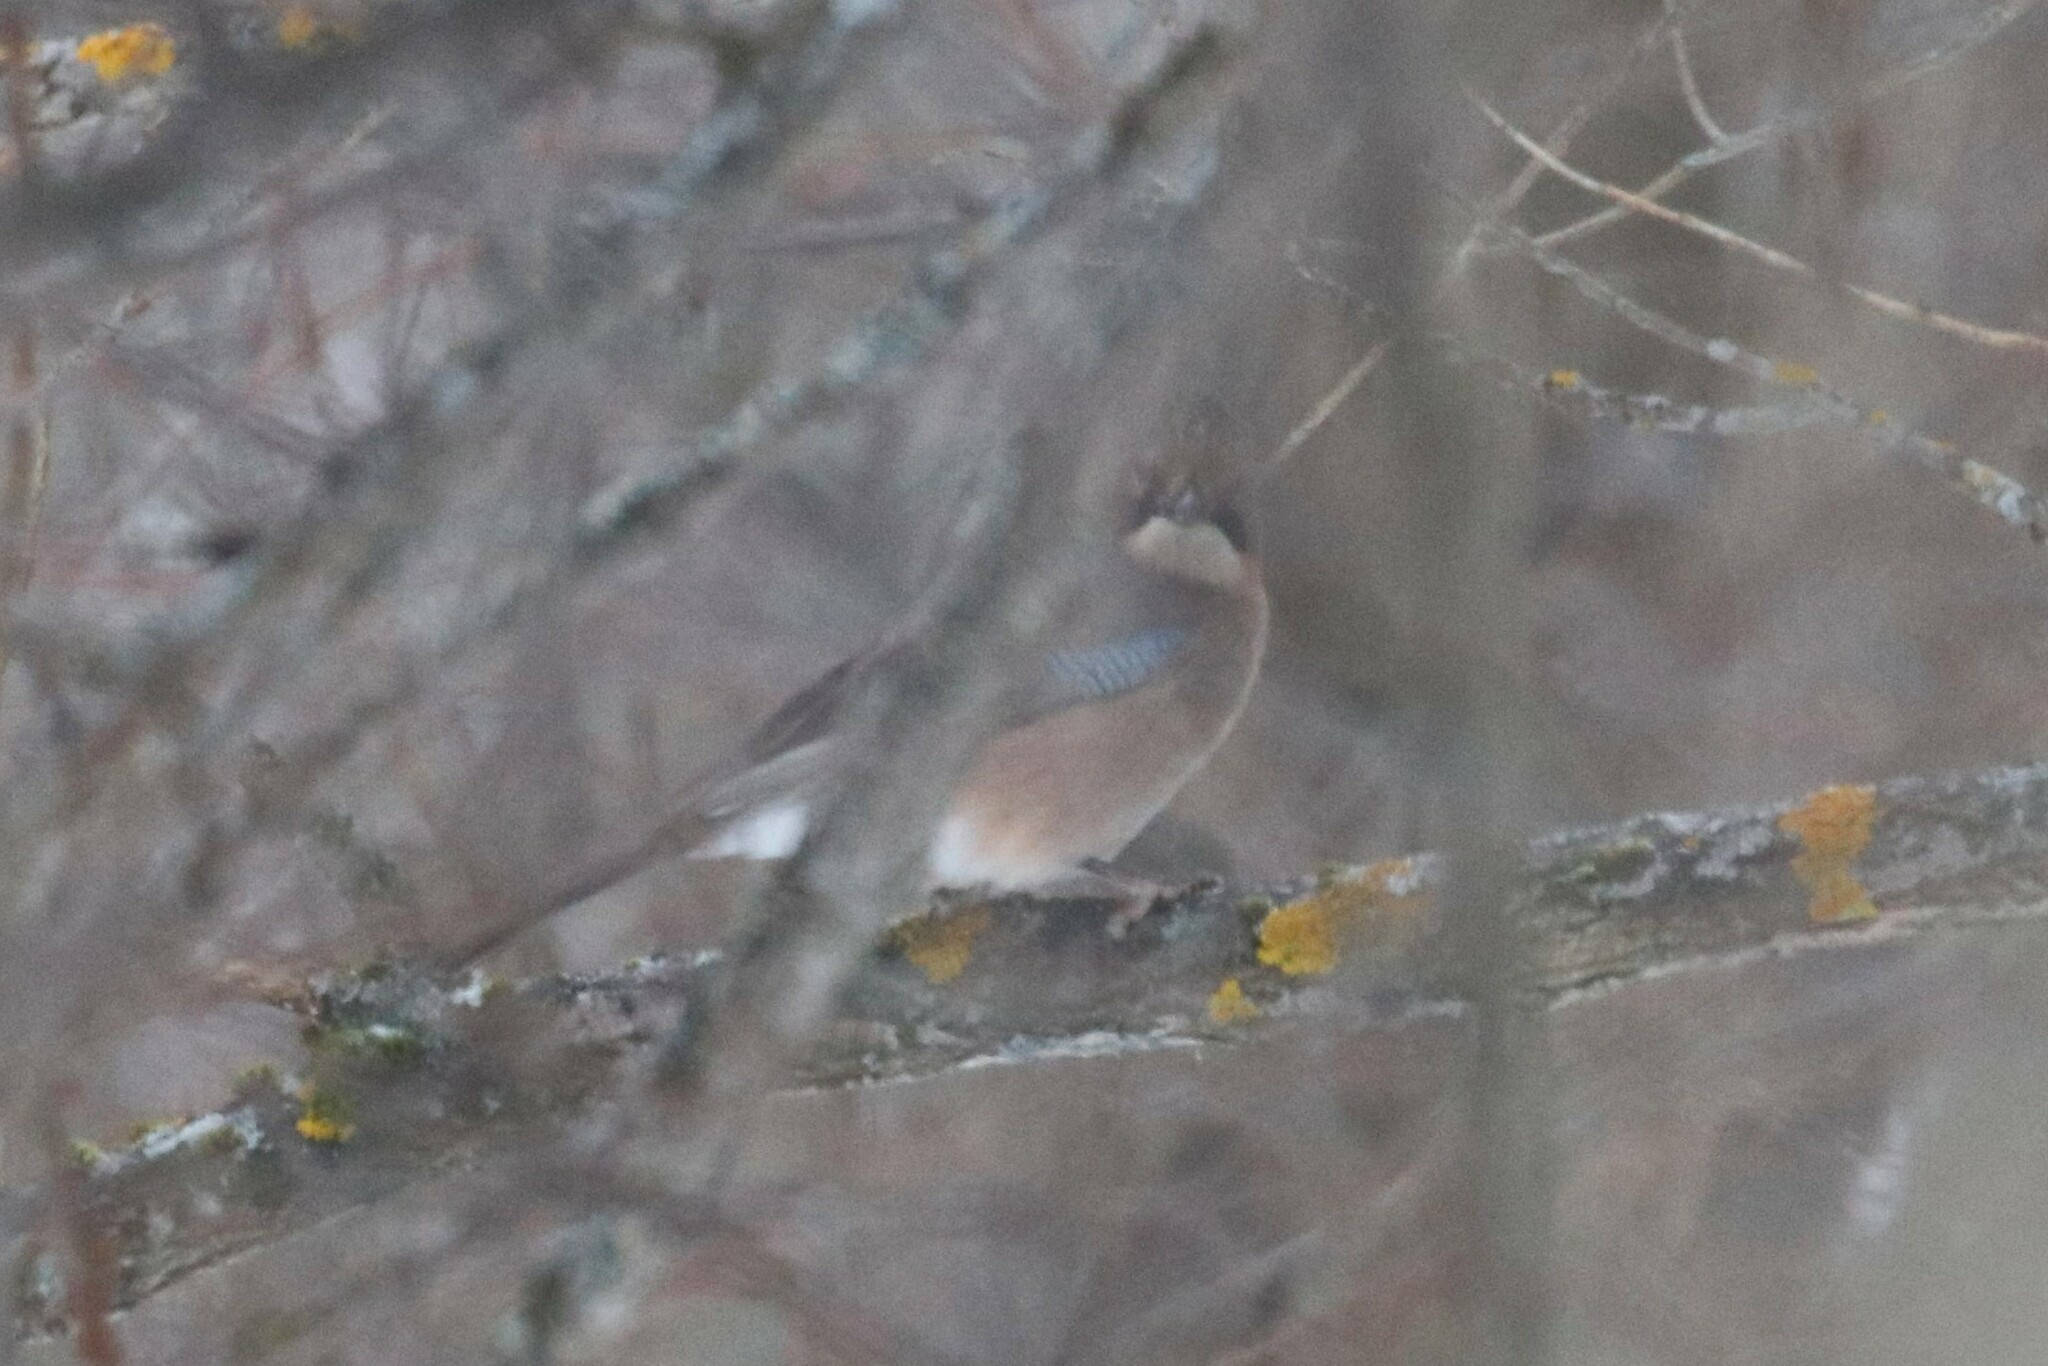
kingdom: Animalia
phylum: Chordata
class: Aves
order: Passeriformes
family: Corvidae
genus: Garrulus
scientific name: Garrulus glandarius
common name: Eurasian jay
